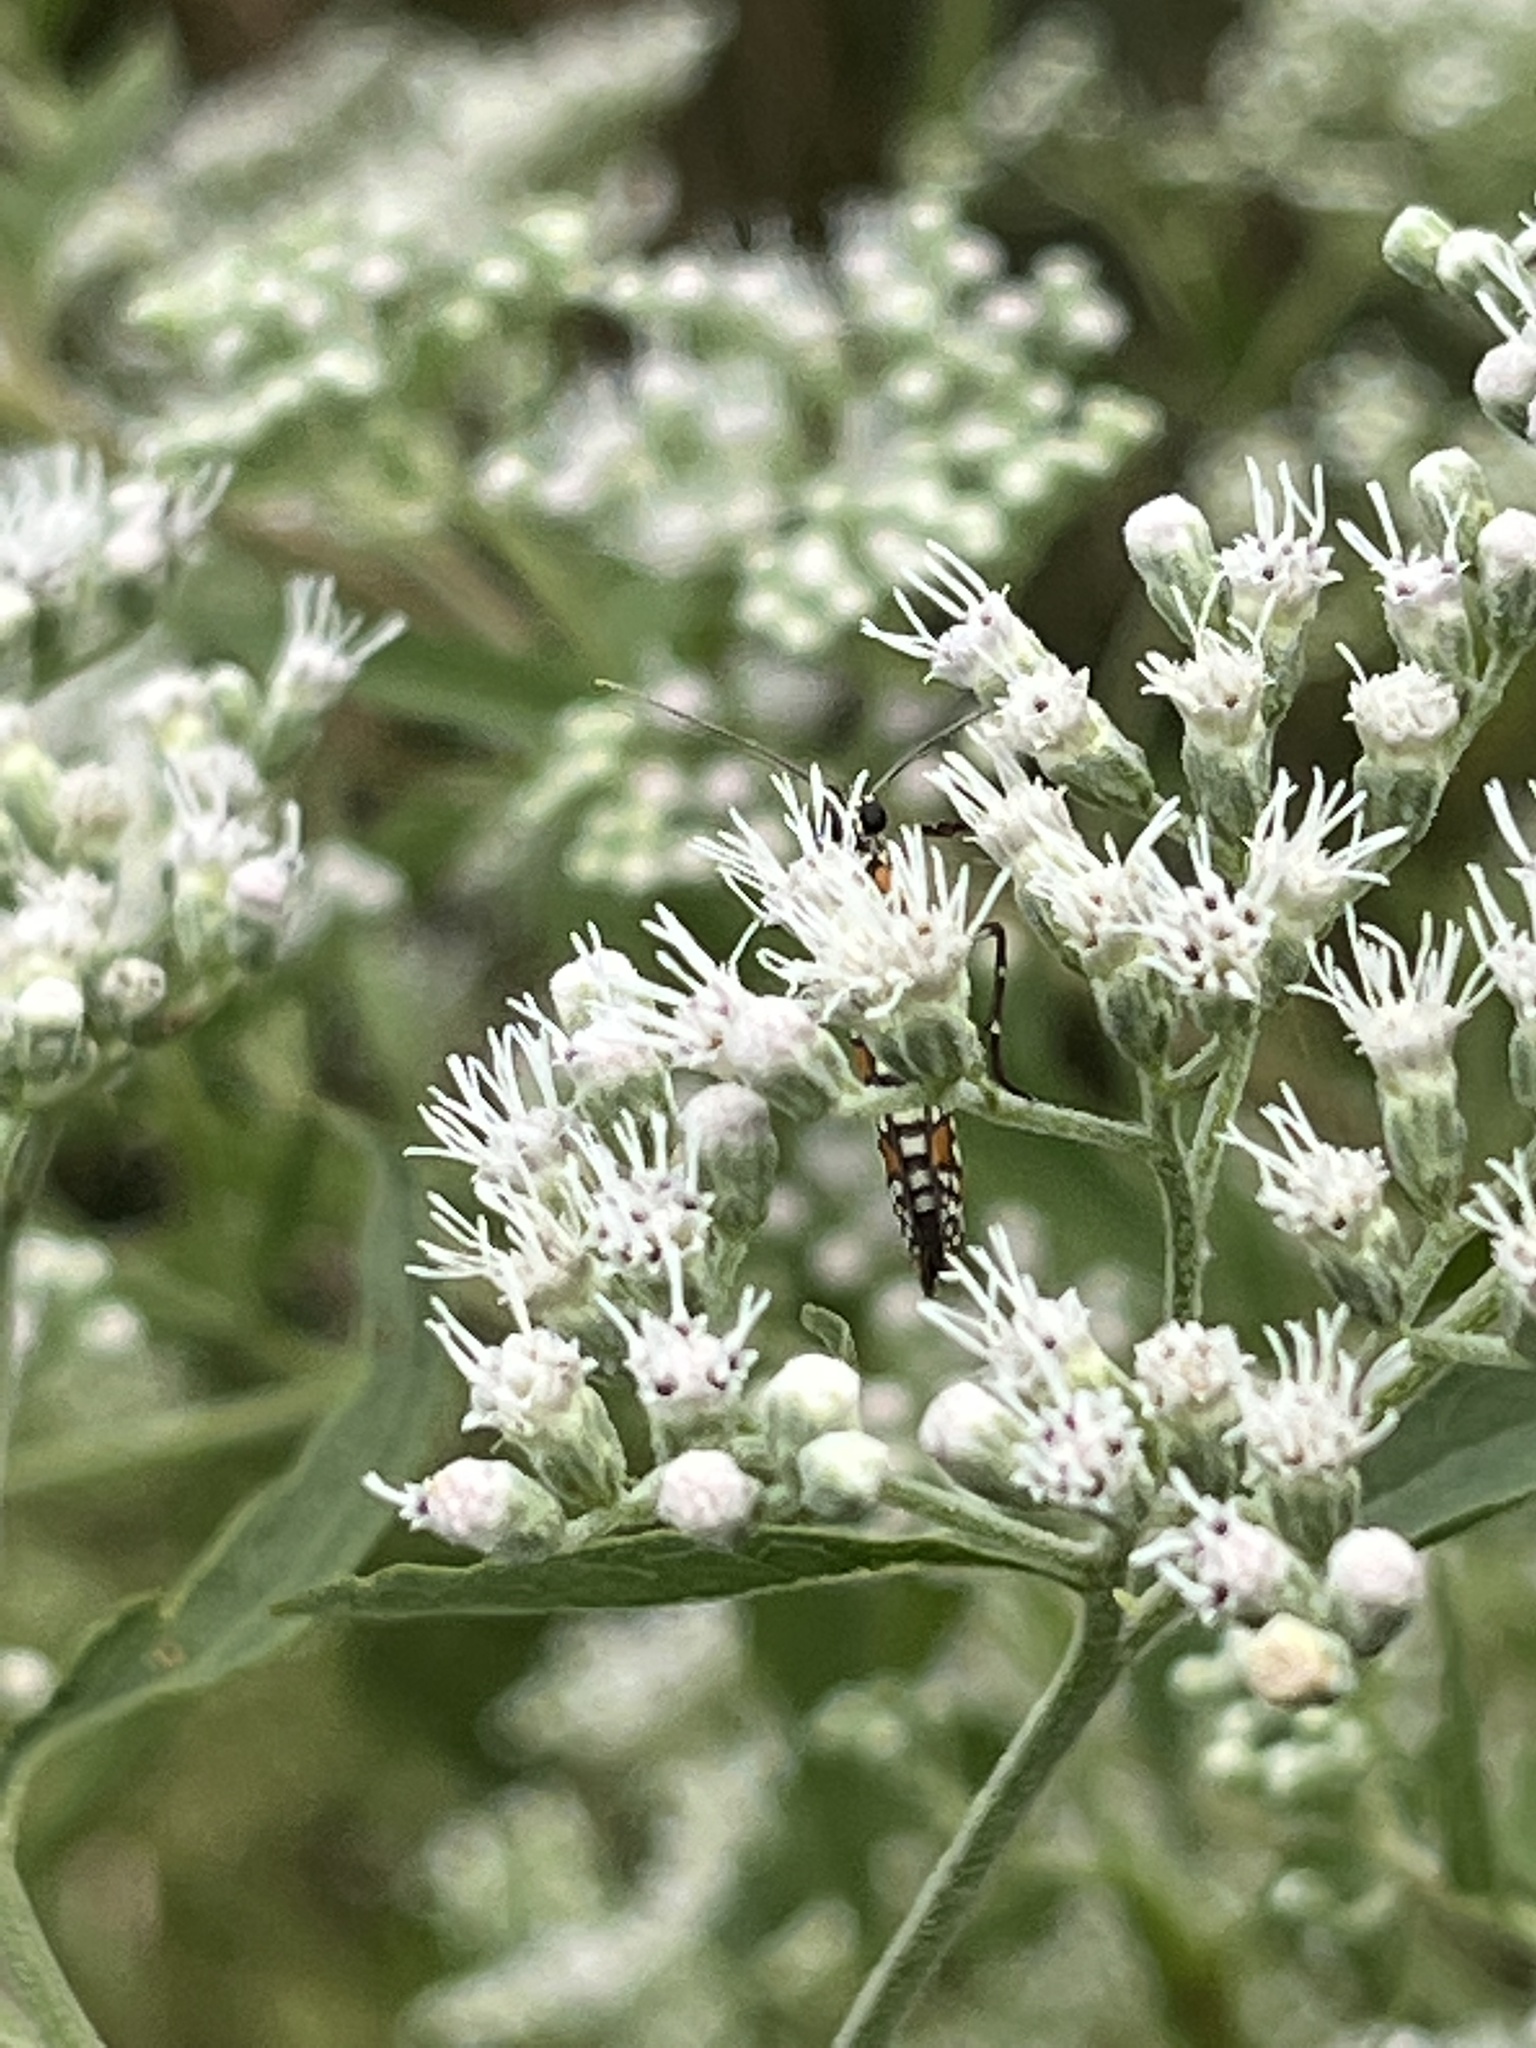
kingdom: Animalia
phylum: Arthropoda
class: Insecta
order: Lepidoptera
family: Attevidae
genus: Atteva
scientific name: Atteva punctella
